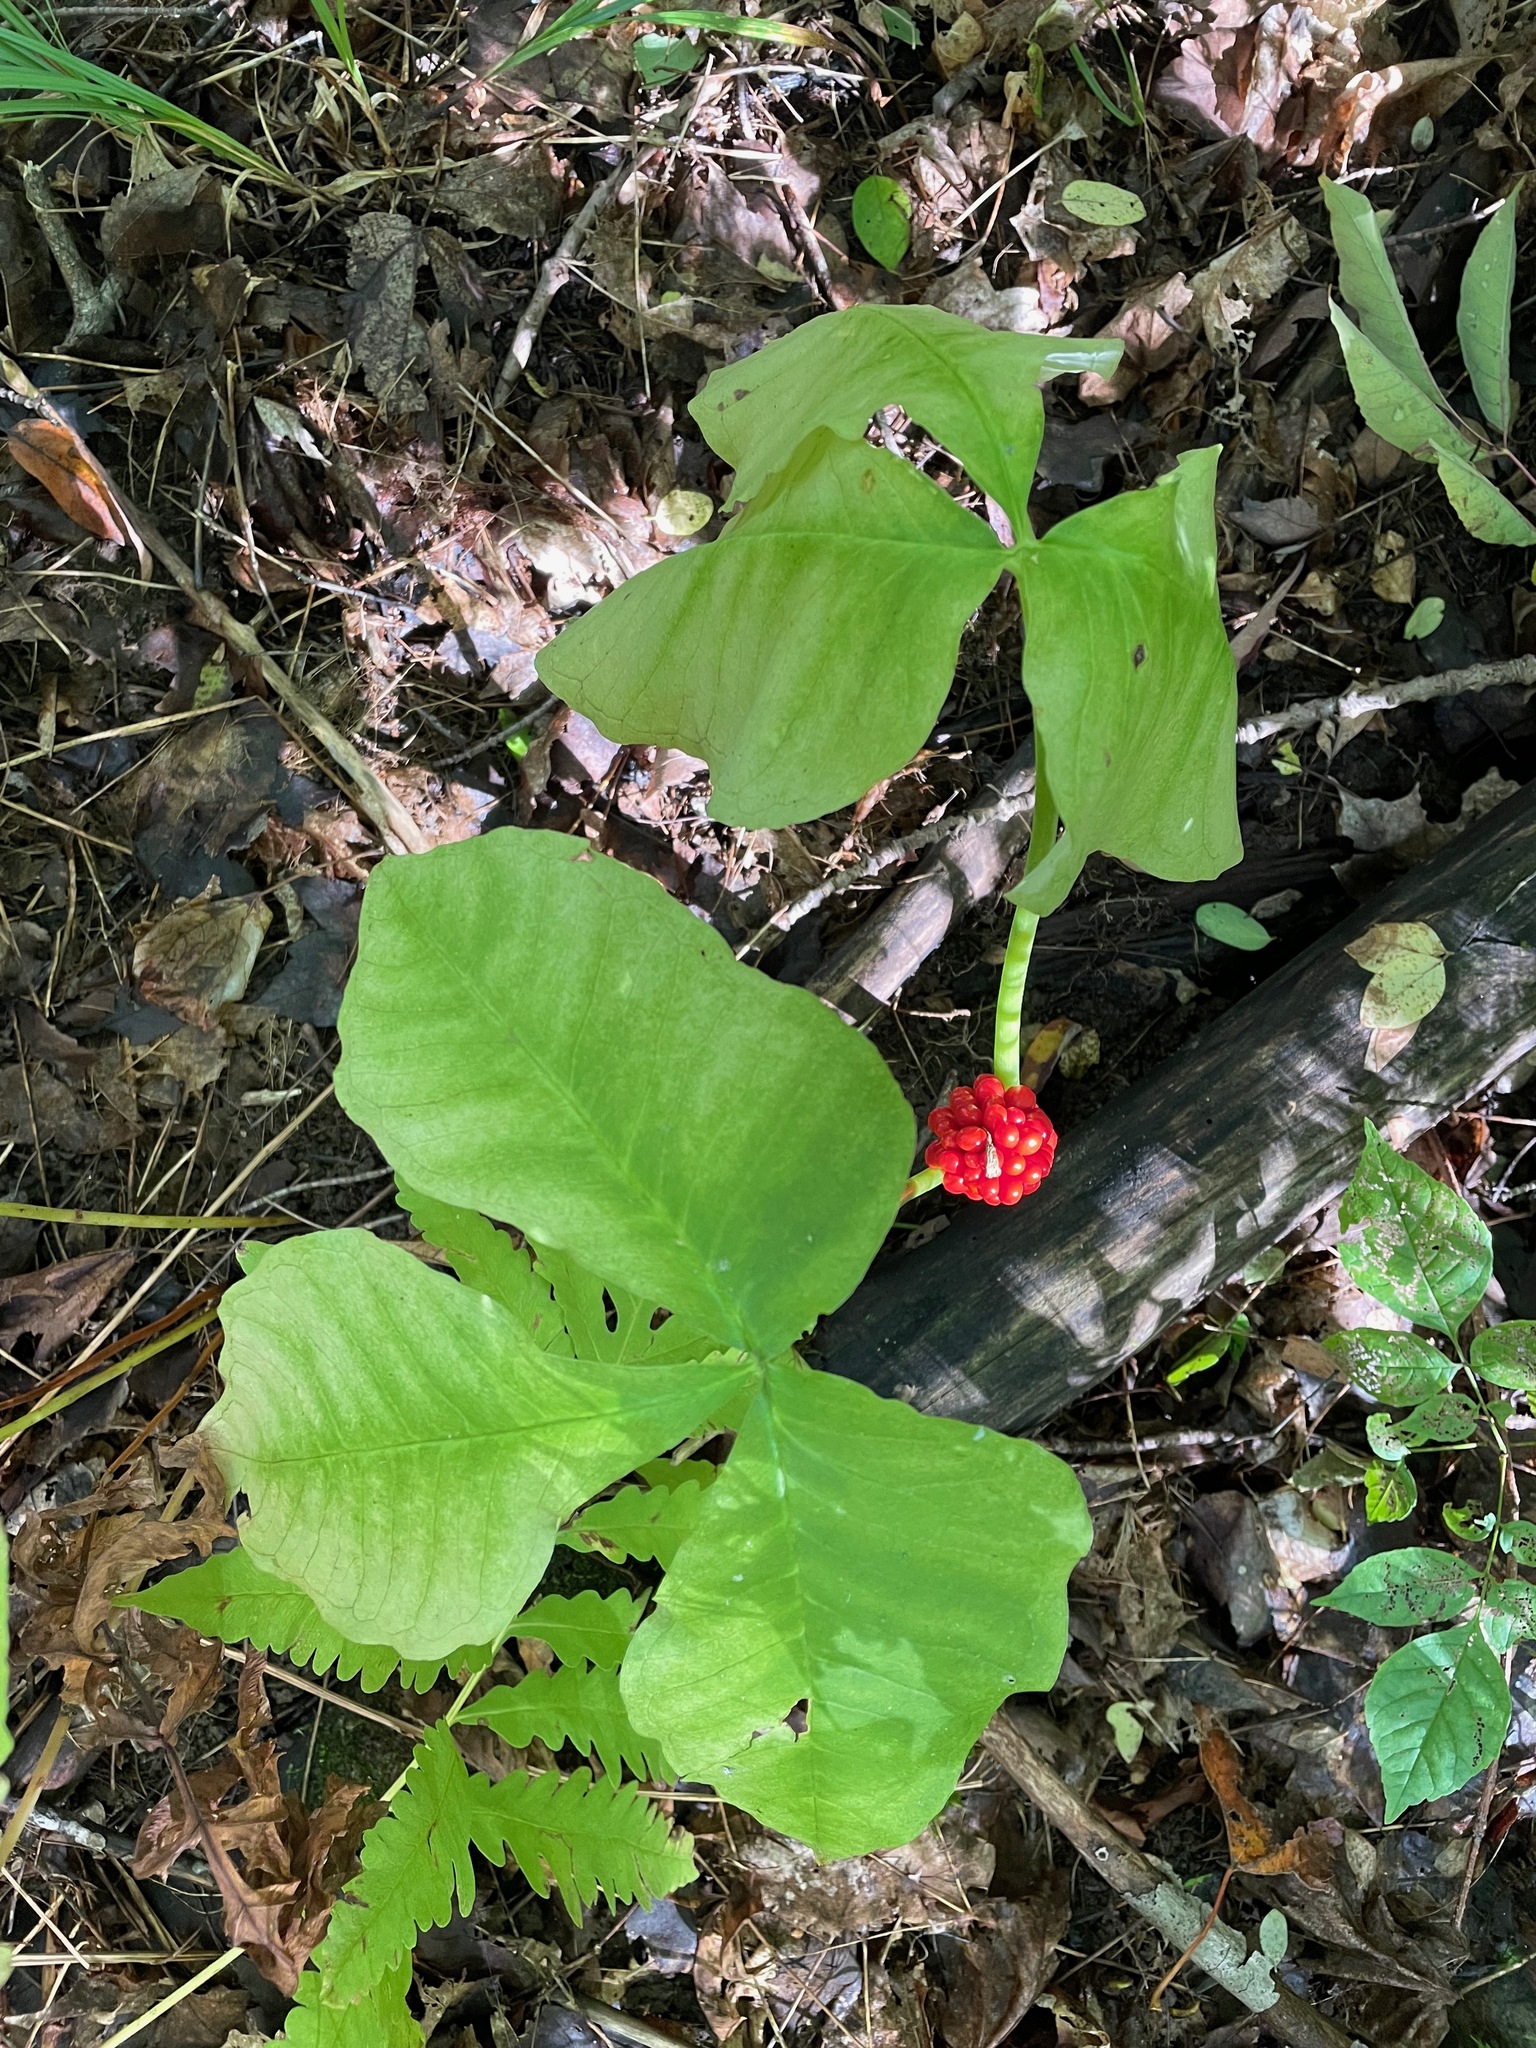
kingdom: Plantae
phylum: Tracheophyta
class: Liliopsida
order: Alismatales
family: Araceae
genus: Arisaema
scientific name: Arisaema
